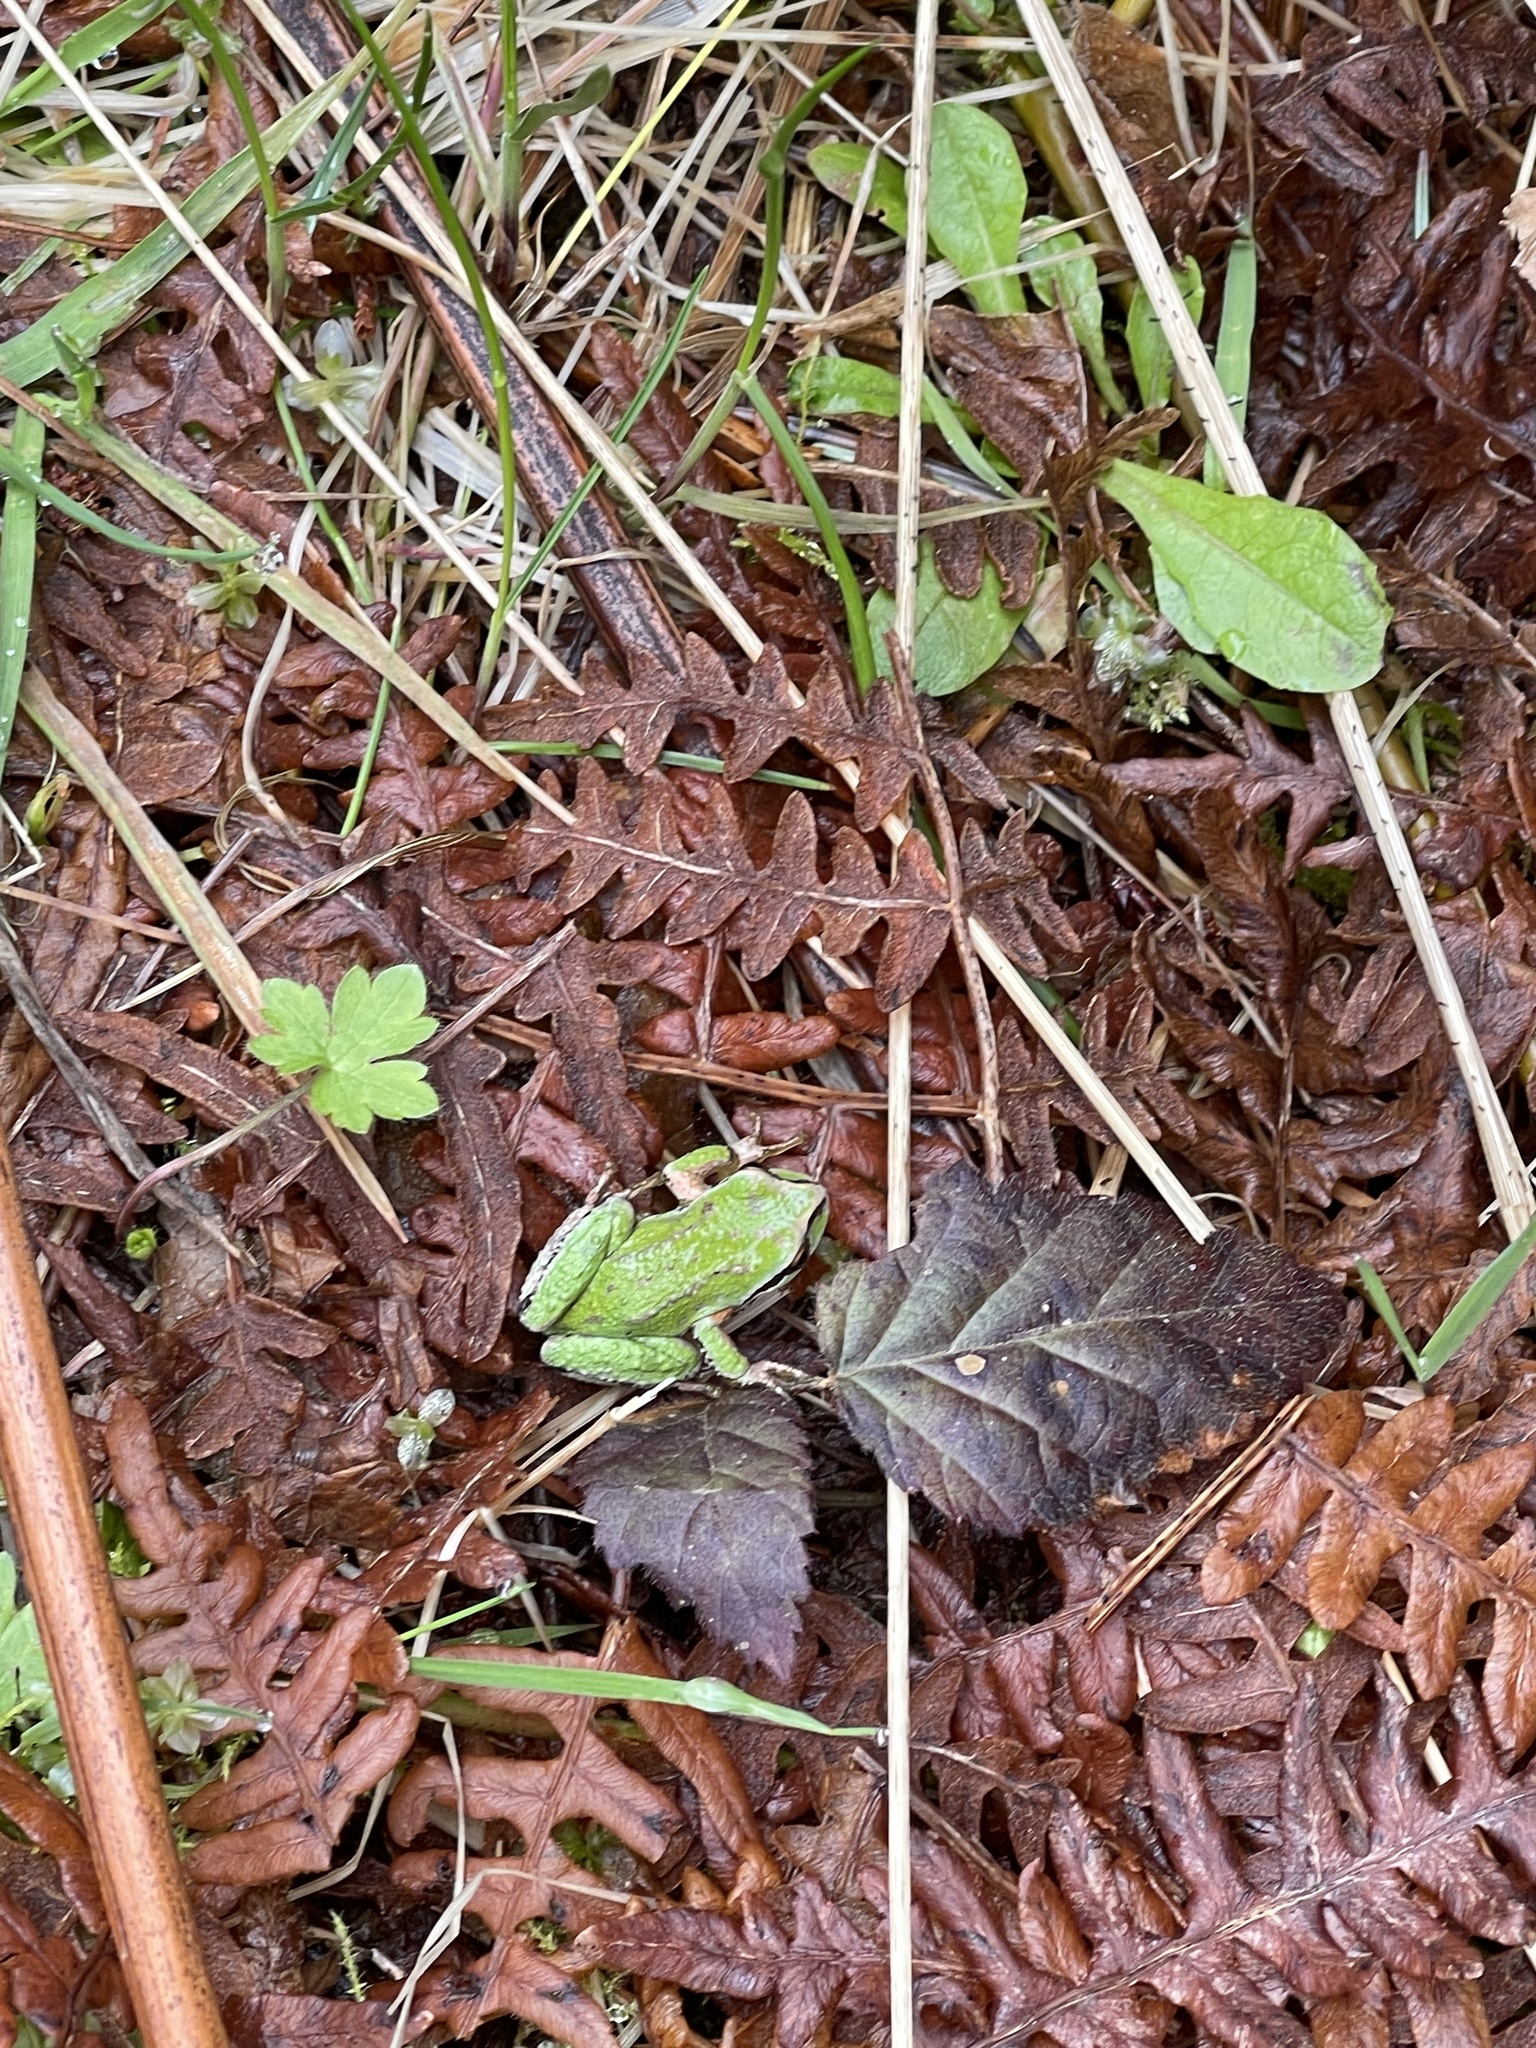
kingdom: Animalia
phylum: Chordata
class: Amphibia
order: Anura
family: Hylidae
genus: Pseudacris
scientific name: Pseudacris regilla
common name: Pacific chorus frog
